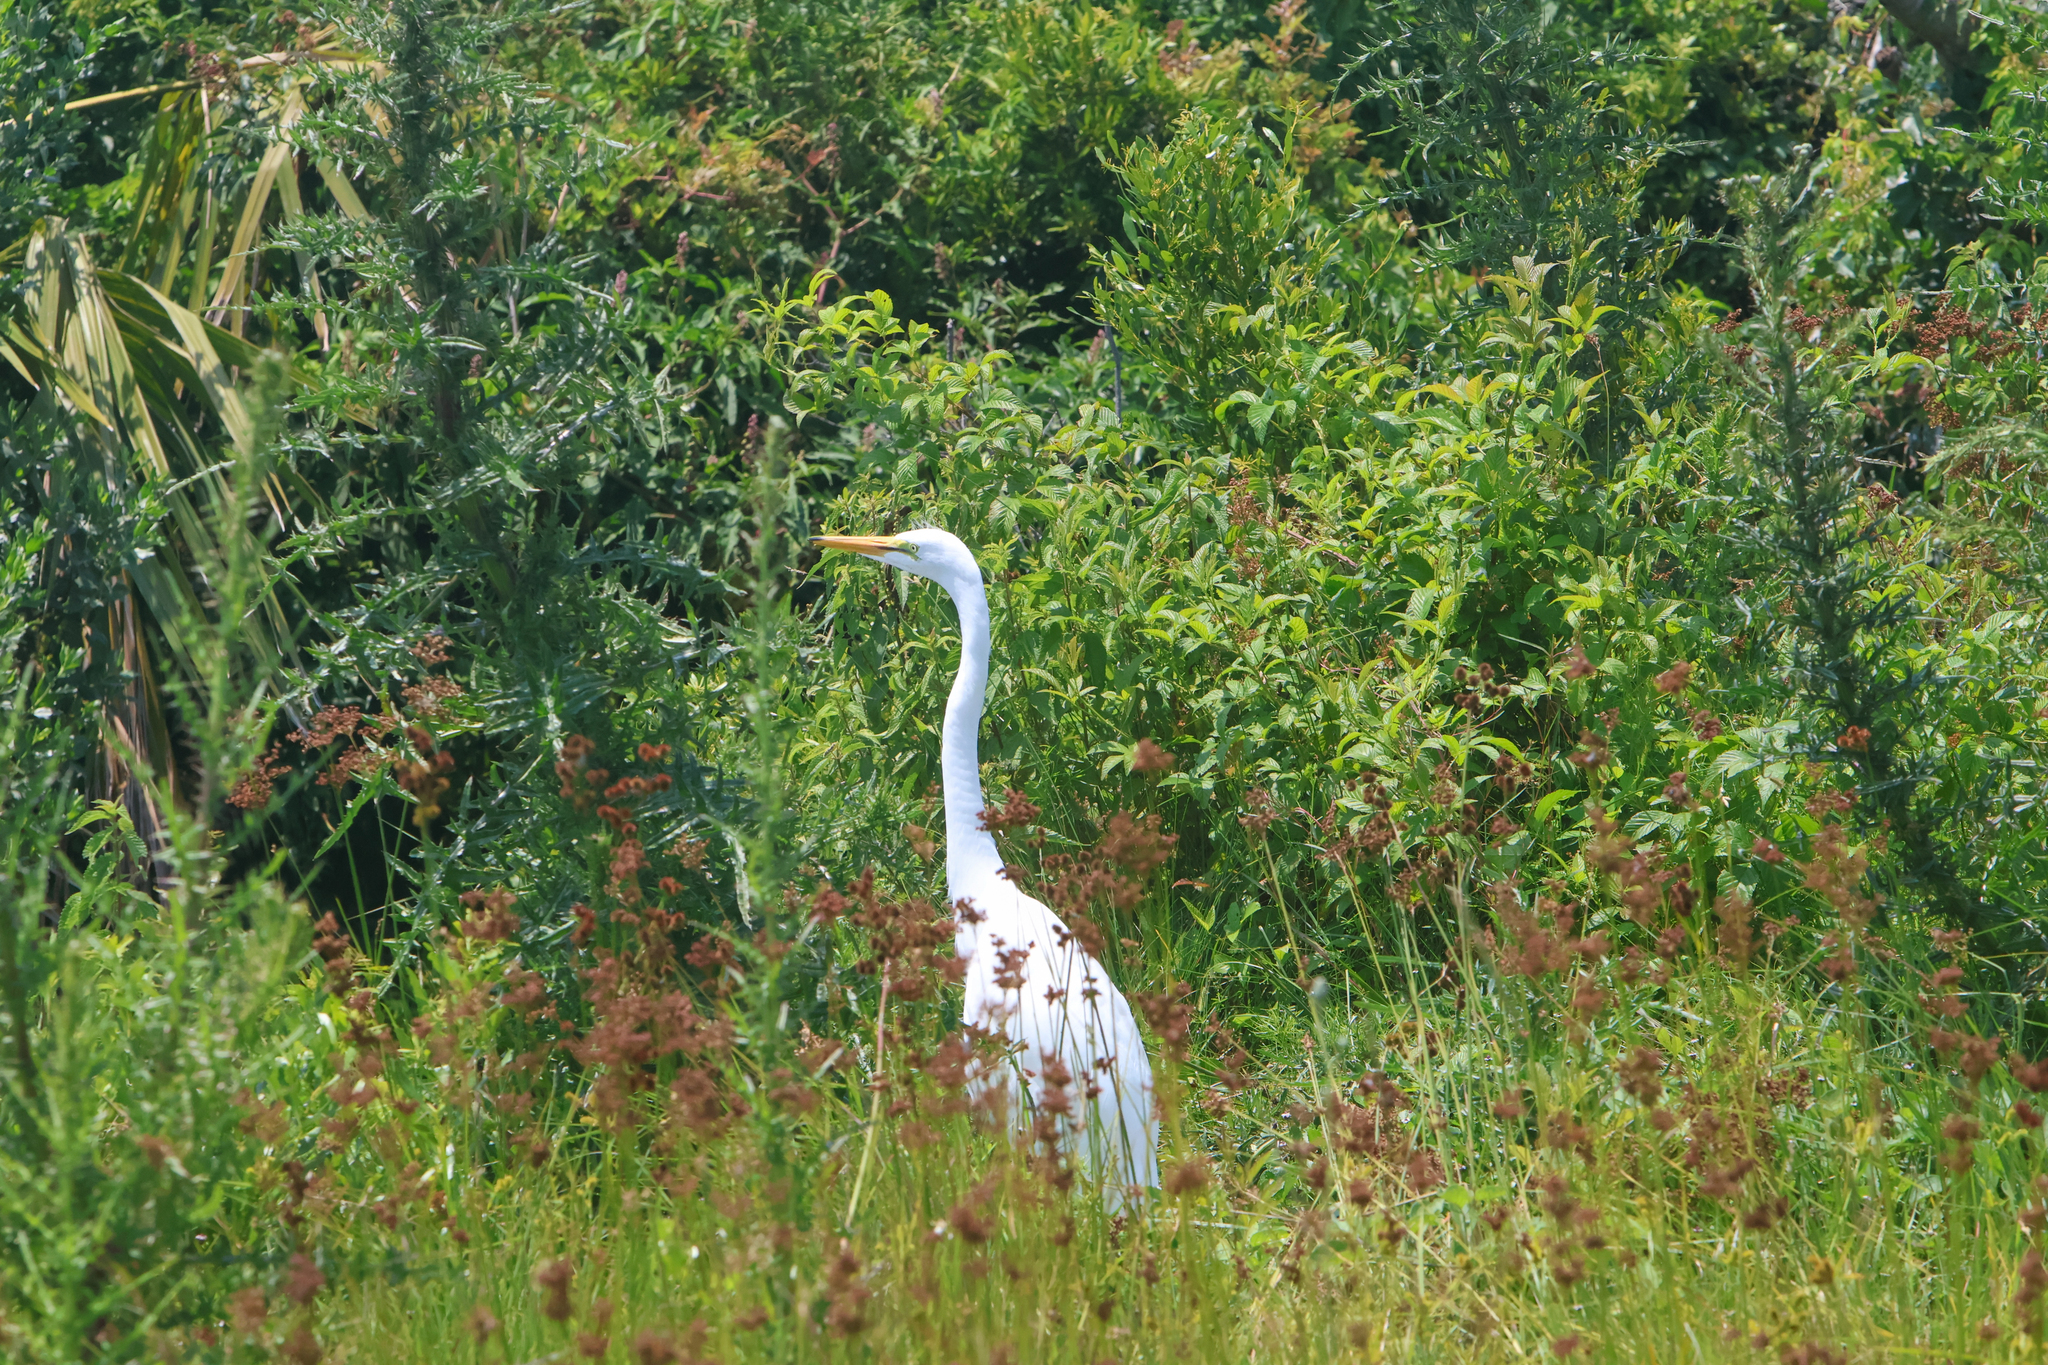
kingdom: Animalia
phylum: Chordata
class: Aves
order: Pelecaniformes
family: Ardeidae
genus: Ardea
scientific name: Ardea alba
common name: Great egret
